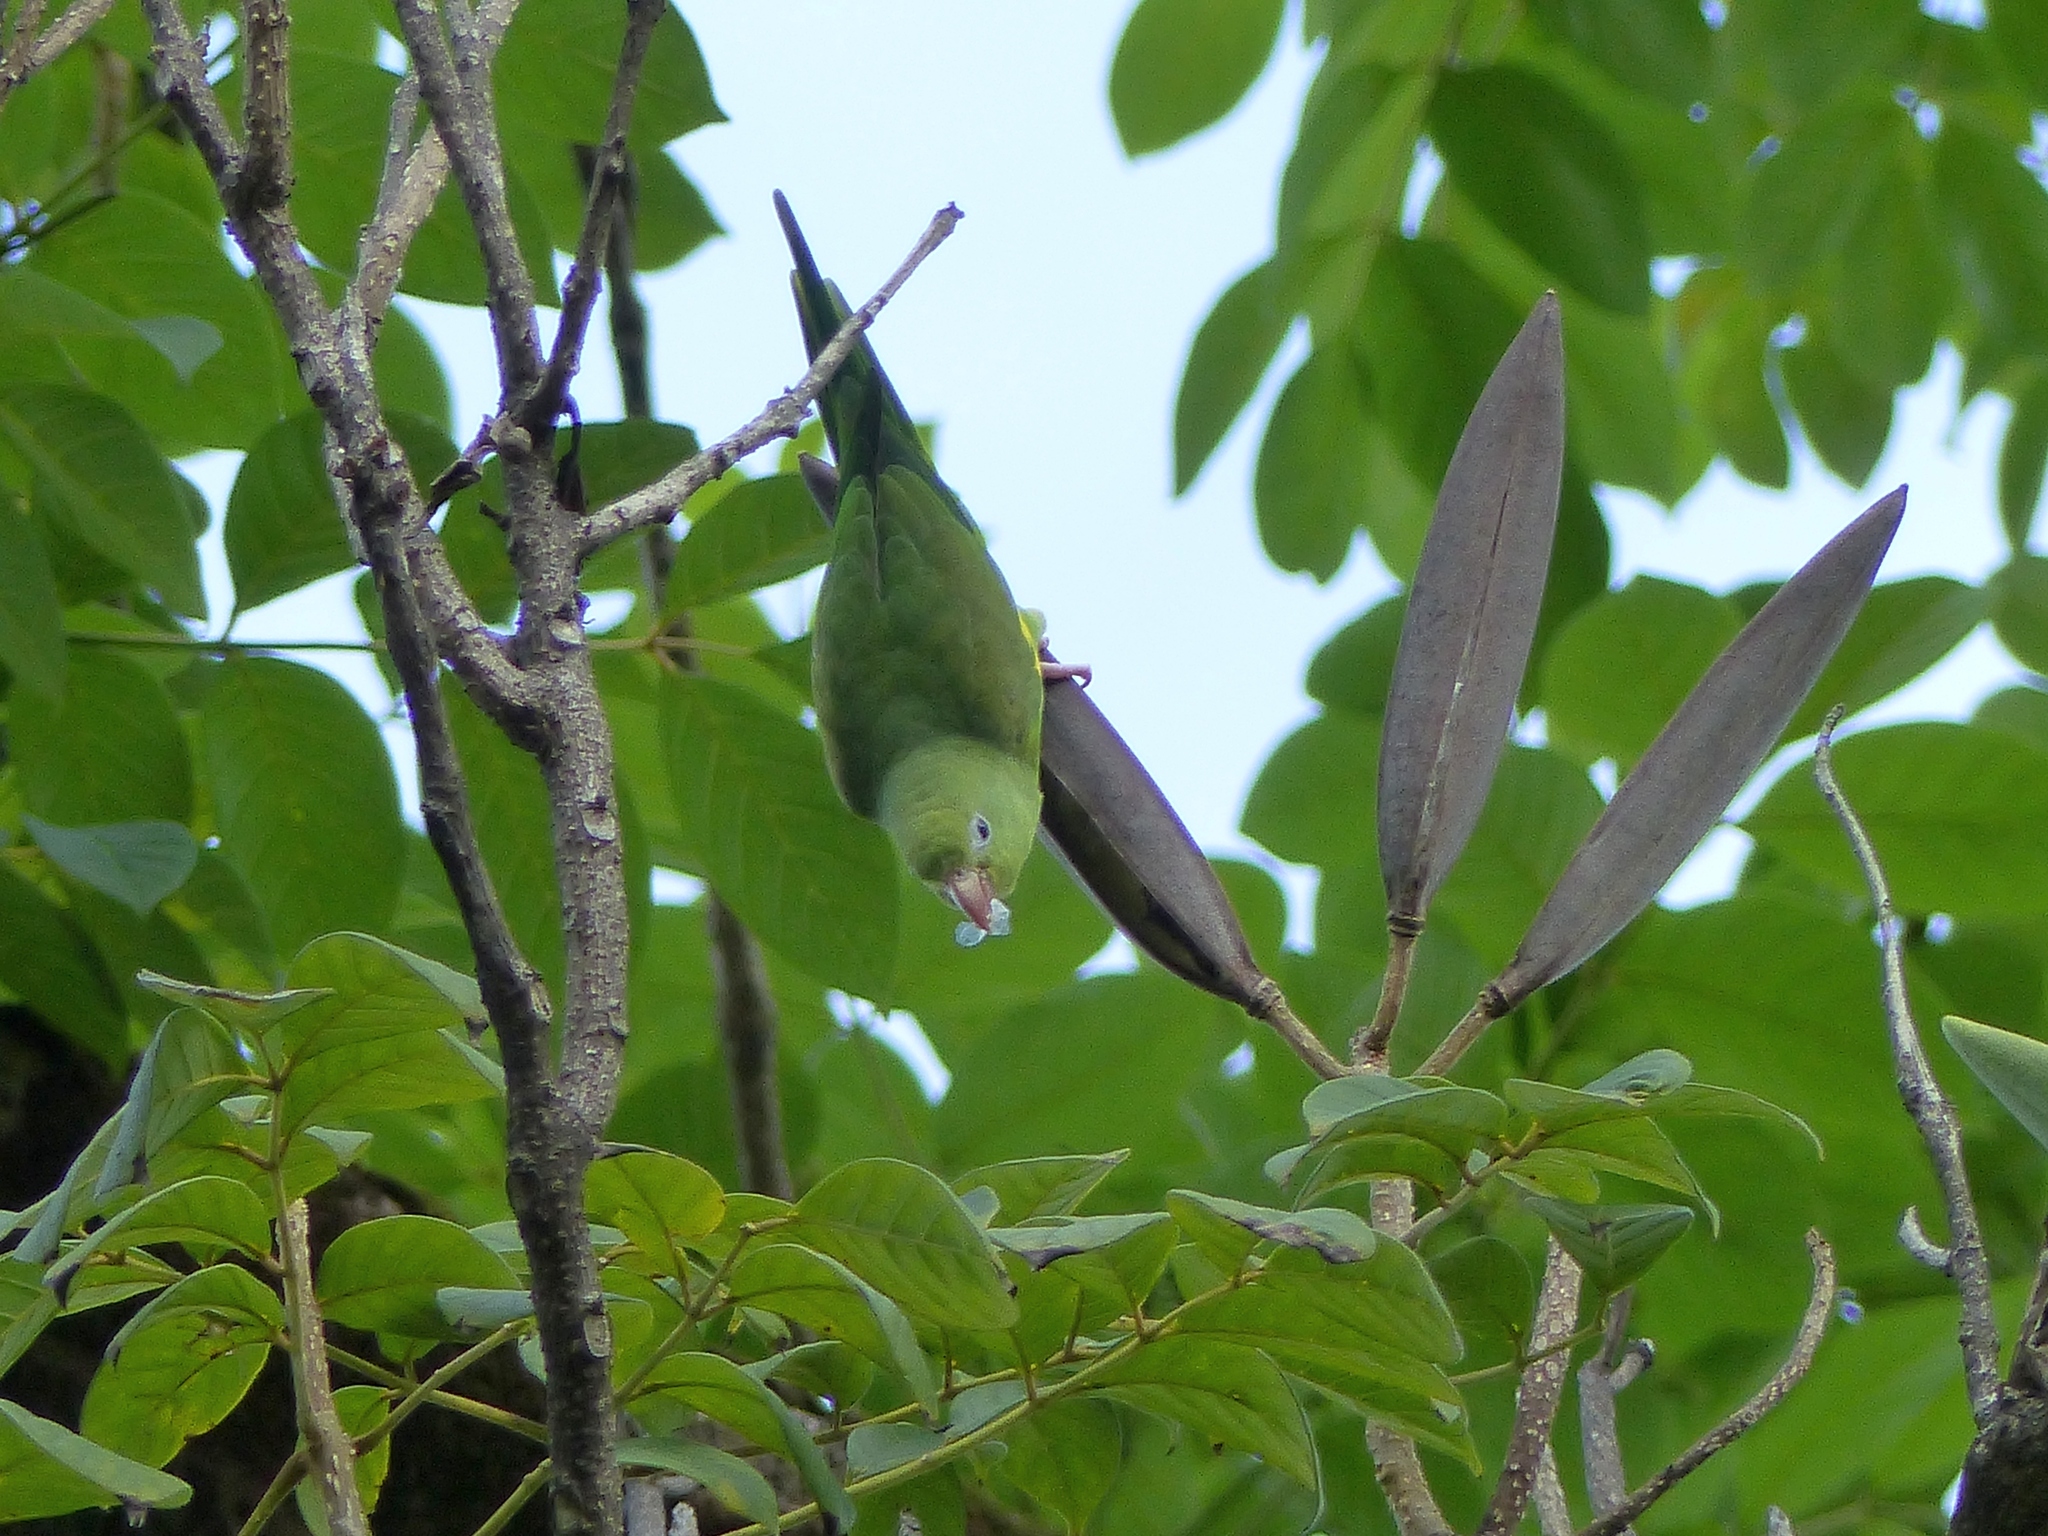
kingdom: Animalia
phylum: Chordata
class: Aves
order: Psittaciformes
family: Psittacidae
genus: Brotogeris
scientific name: Brotogeris chiriri
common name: Yellow-chevroned parakeet
